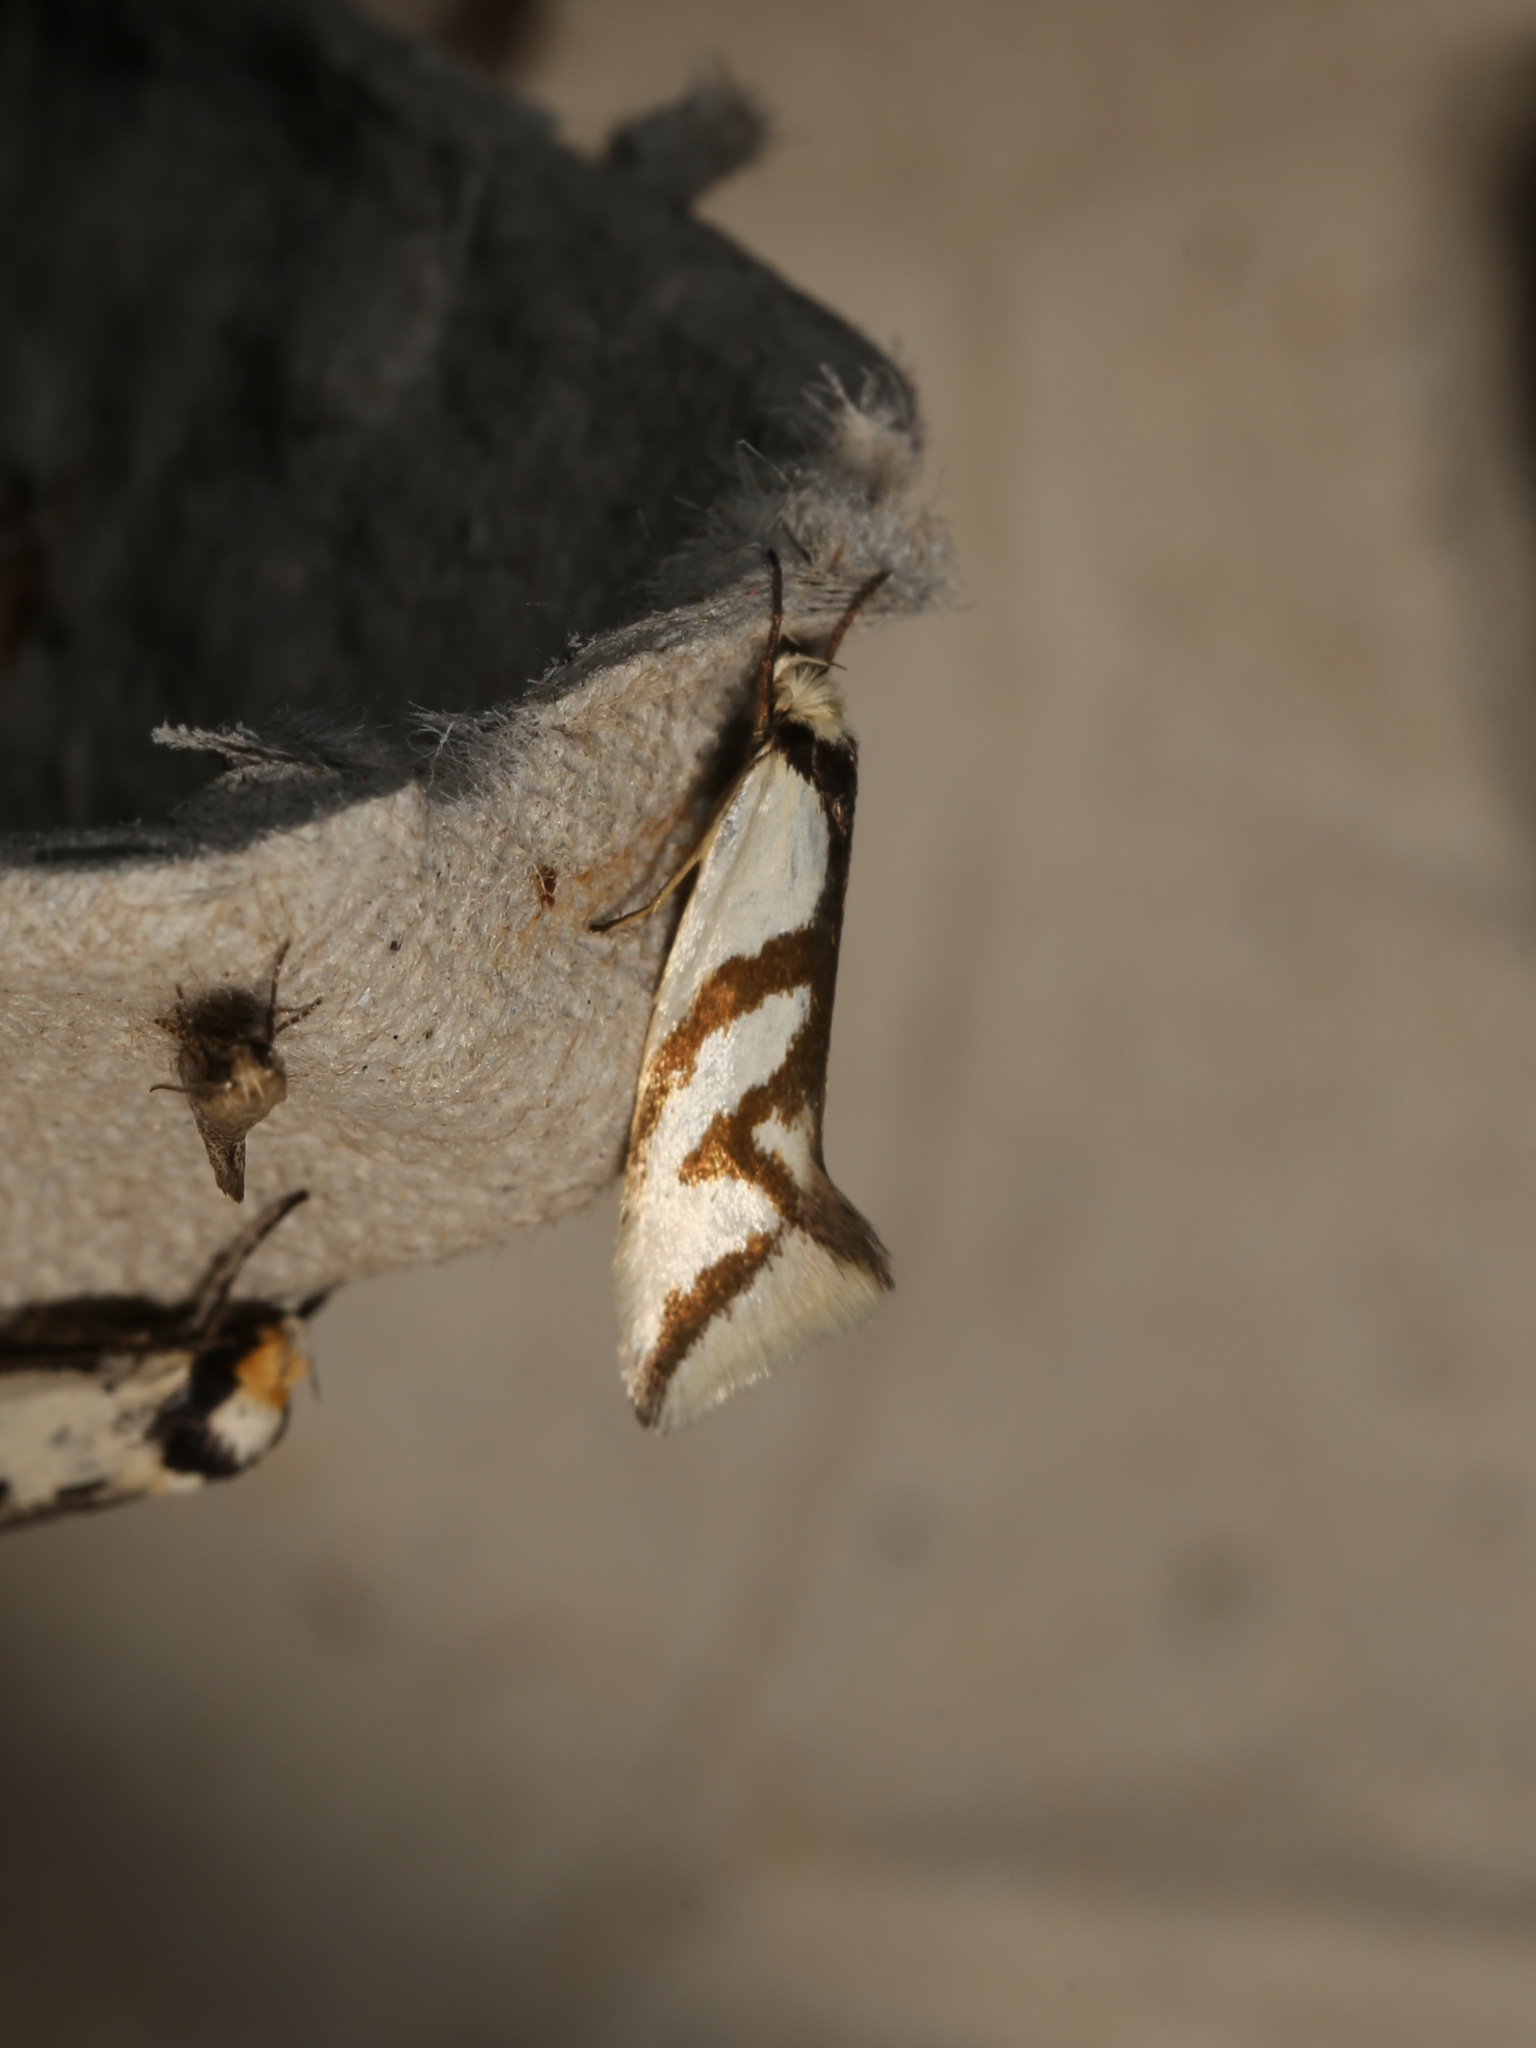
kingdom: Animalia
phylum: Arthropoda
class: Insecta
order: Lepidoptera
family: Oecophoridae
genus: Ocystola
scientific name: Ocystola paulinella
